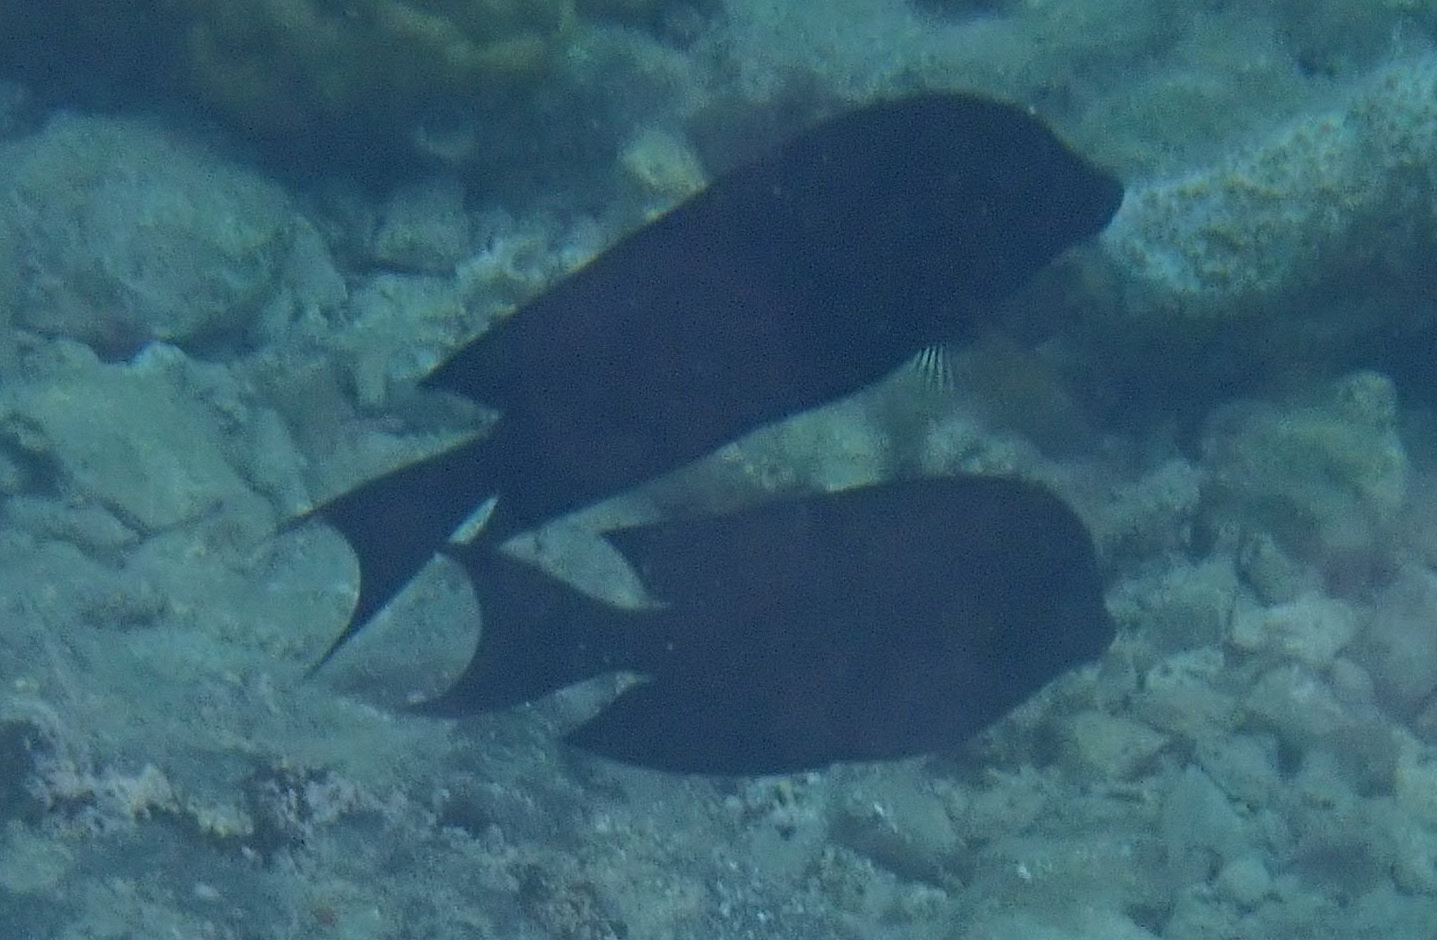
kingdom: Animalia
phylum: Chordata
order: Perciformes
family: Acanthuridae
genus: Ctenochaetus
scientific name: Ctenochaetus striatus
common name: Bristle-toothed surgeonfish
